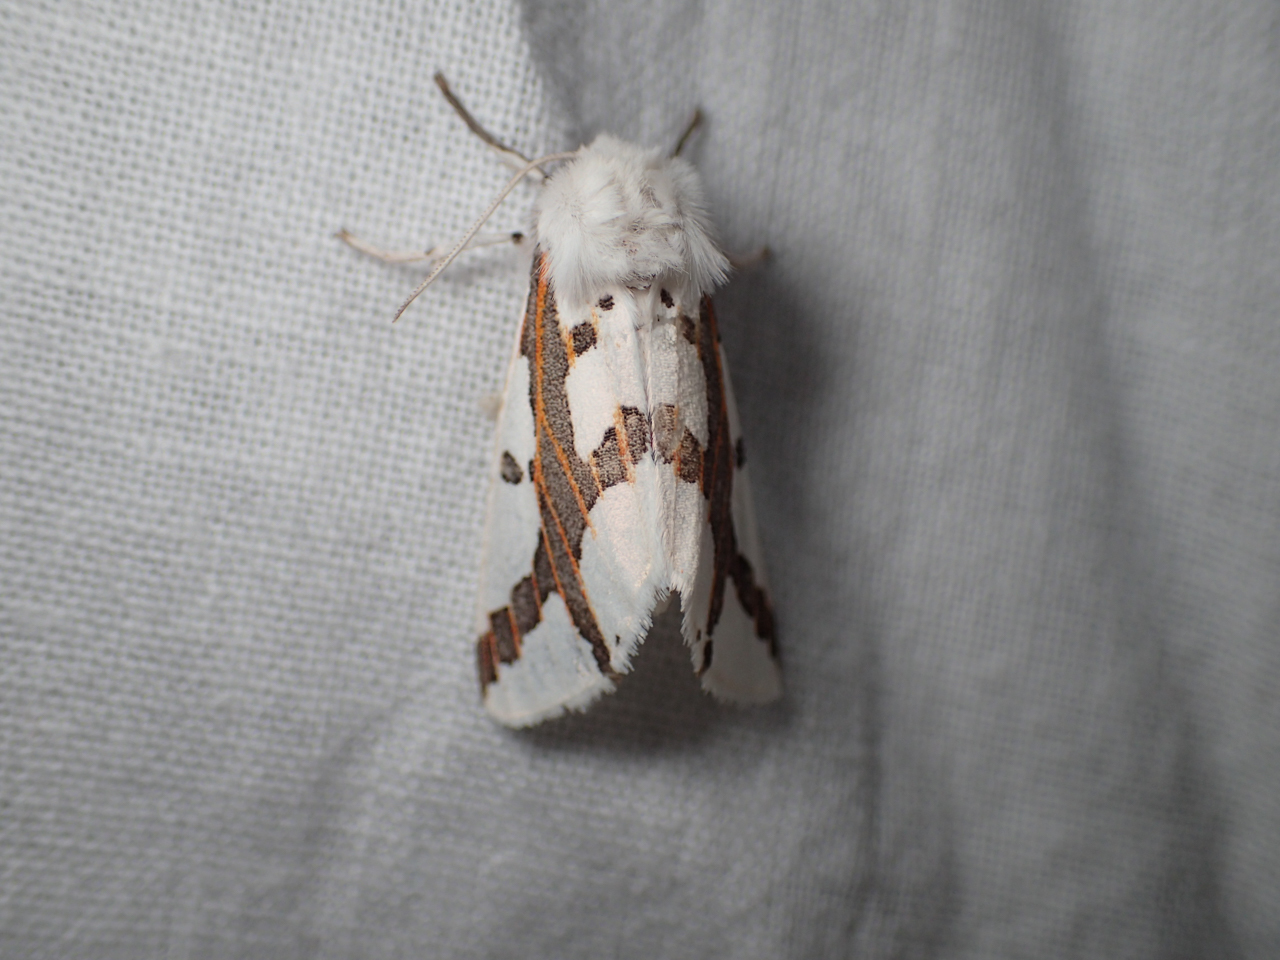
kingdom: Animalia
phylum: Arthropoda
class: Insecta
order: Lepidoptera
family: Erebidae
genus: Euerythra
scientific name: Euerythra phasma
